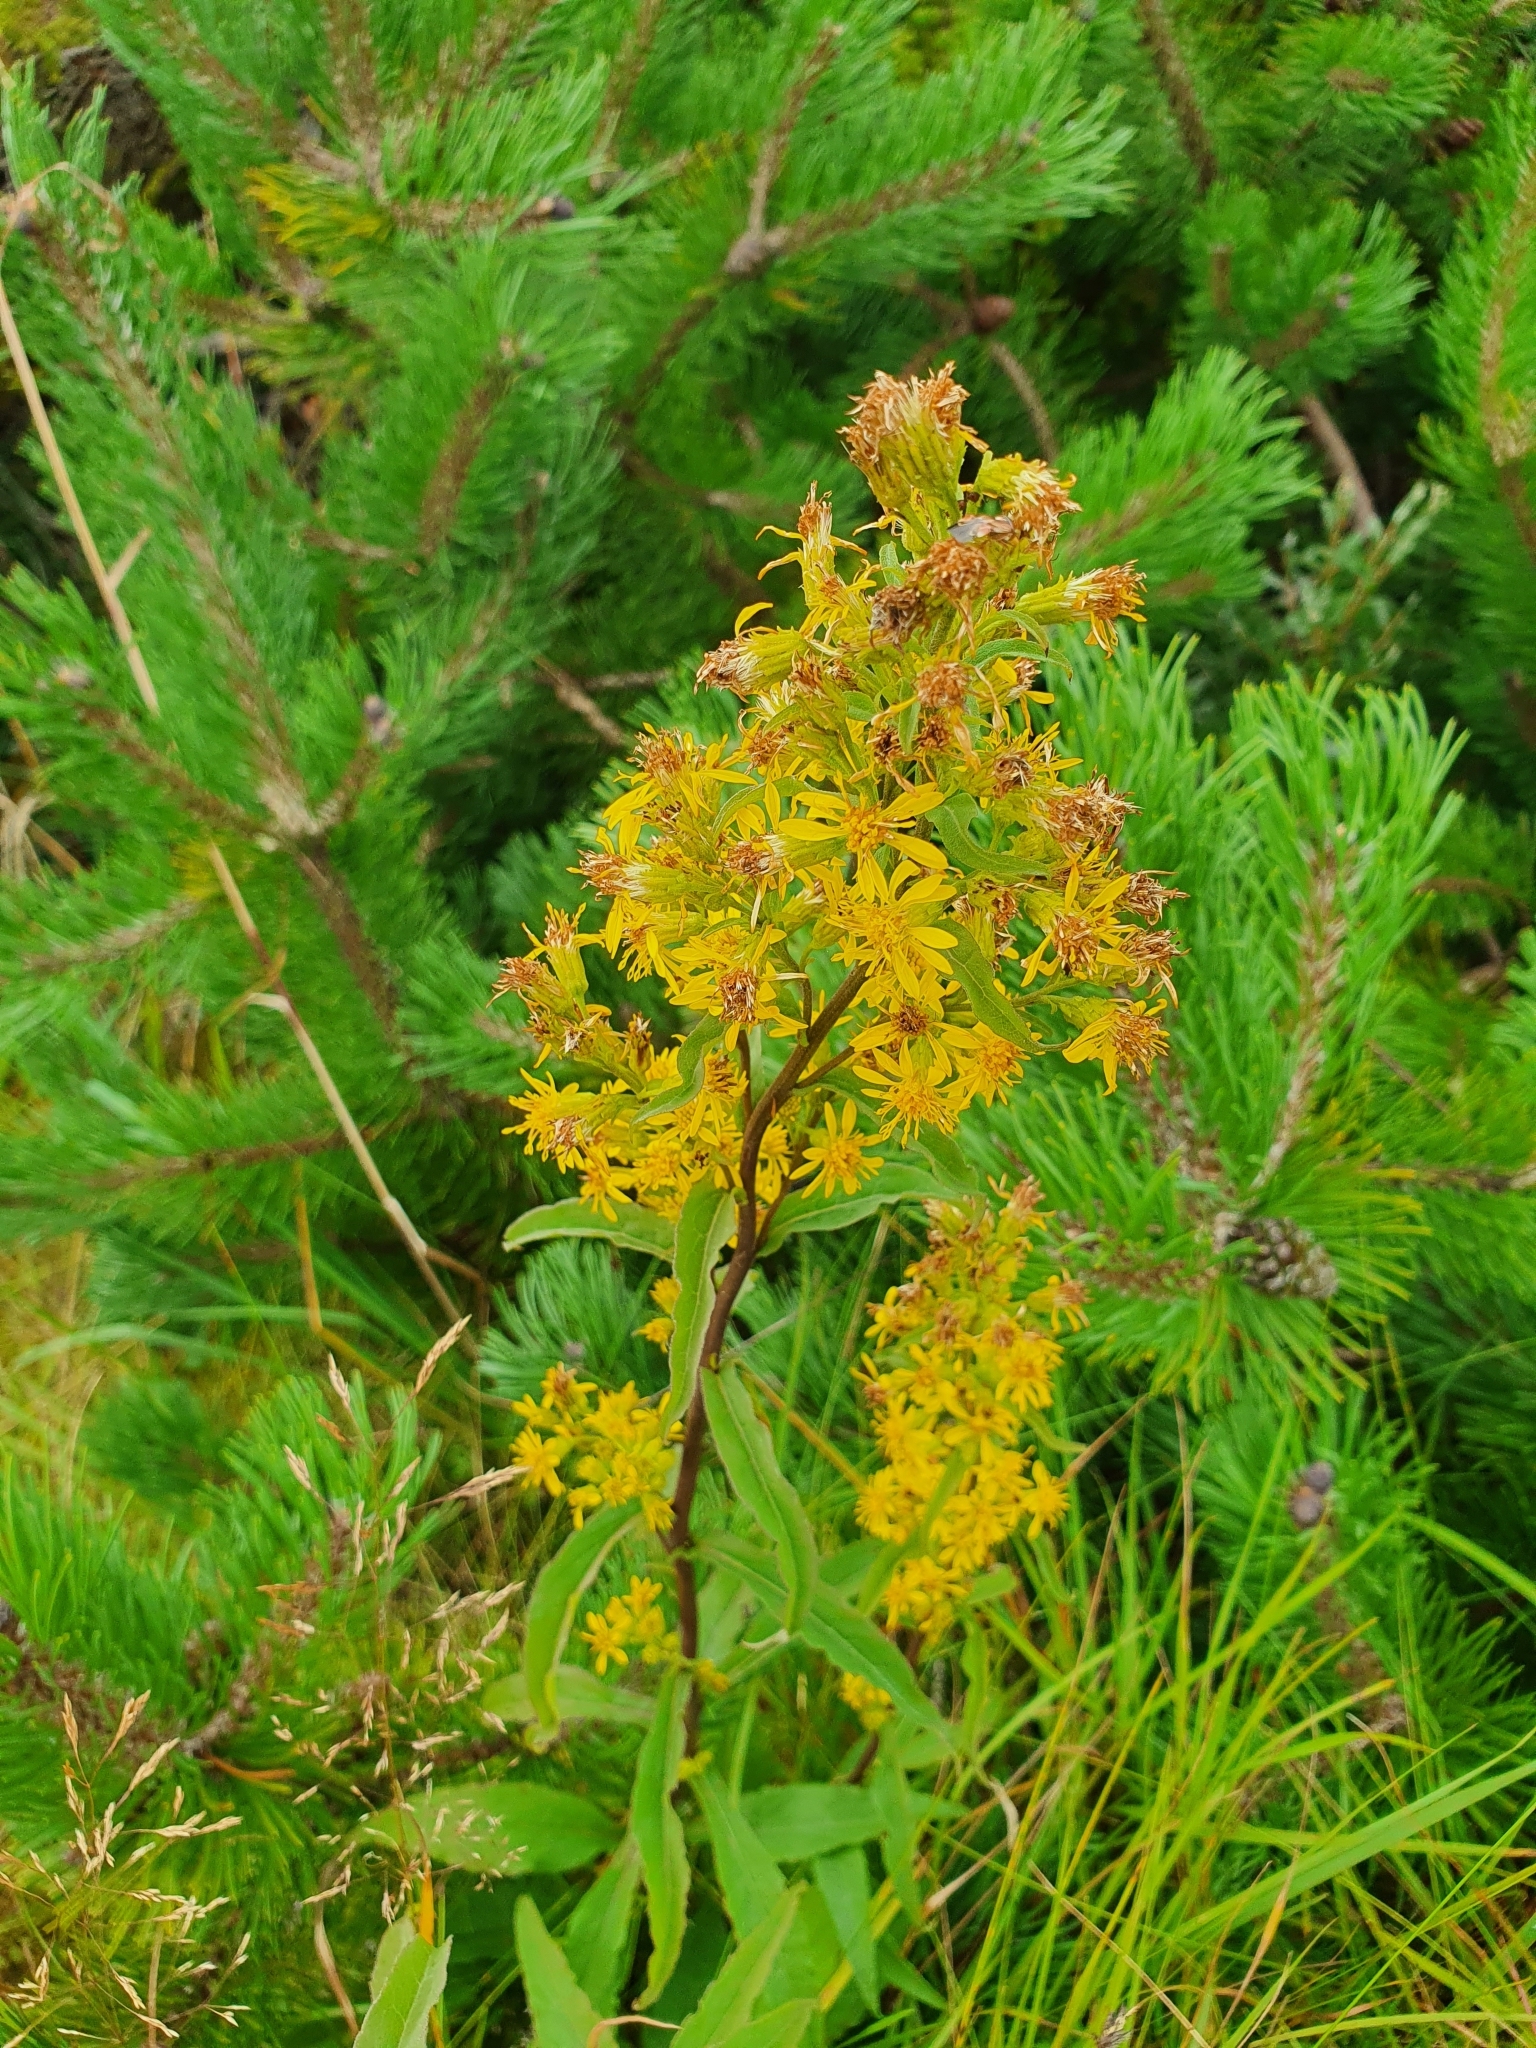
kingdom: Plantae
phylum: Tracheophyta
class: Magnoliopsida
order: Asterales
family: Asteraceae
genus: Solidago
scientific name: Solidago virgaurea
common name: Goldenrod
